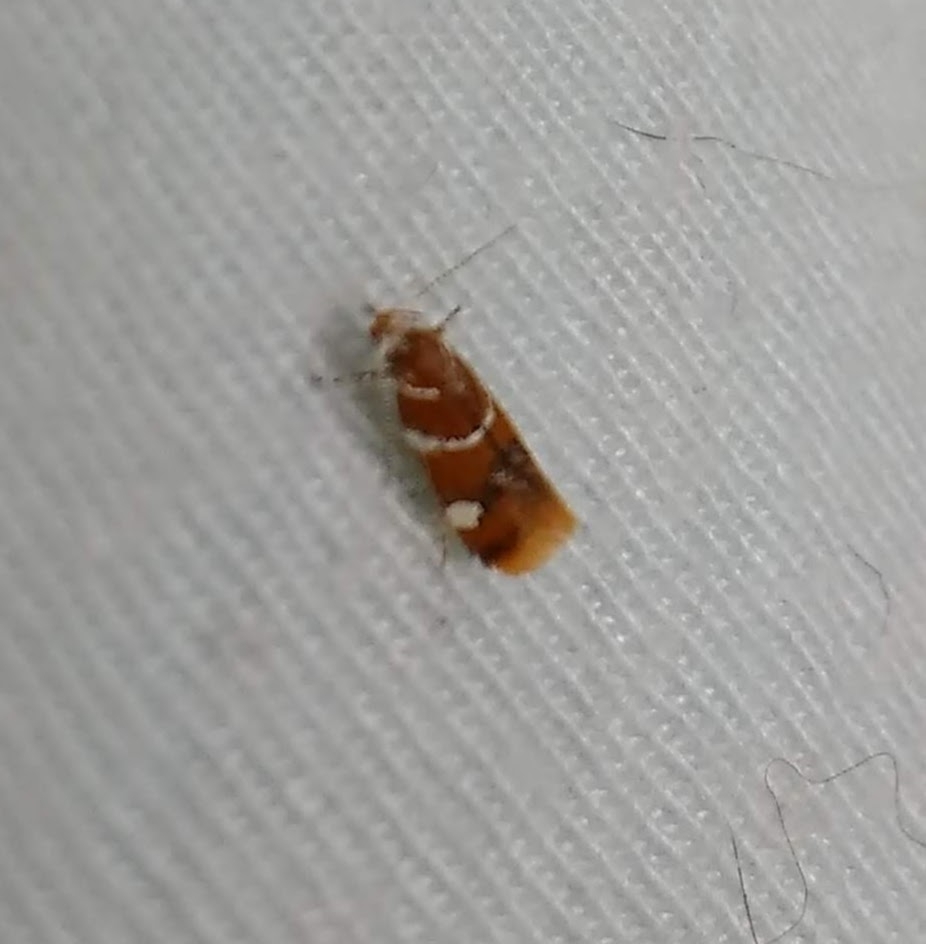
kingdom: Animalia
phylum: Arthropoda
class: Insecta
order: Lepidoptera
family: Oecophoridae
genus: Promalactis
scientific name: Promalactis suzukiella
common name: Moth
